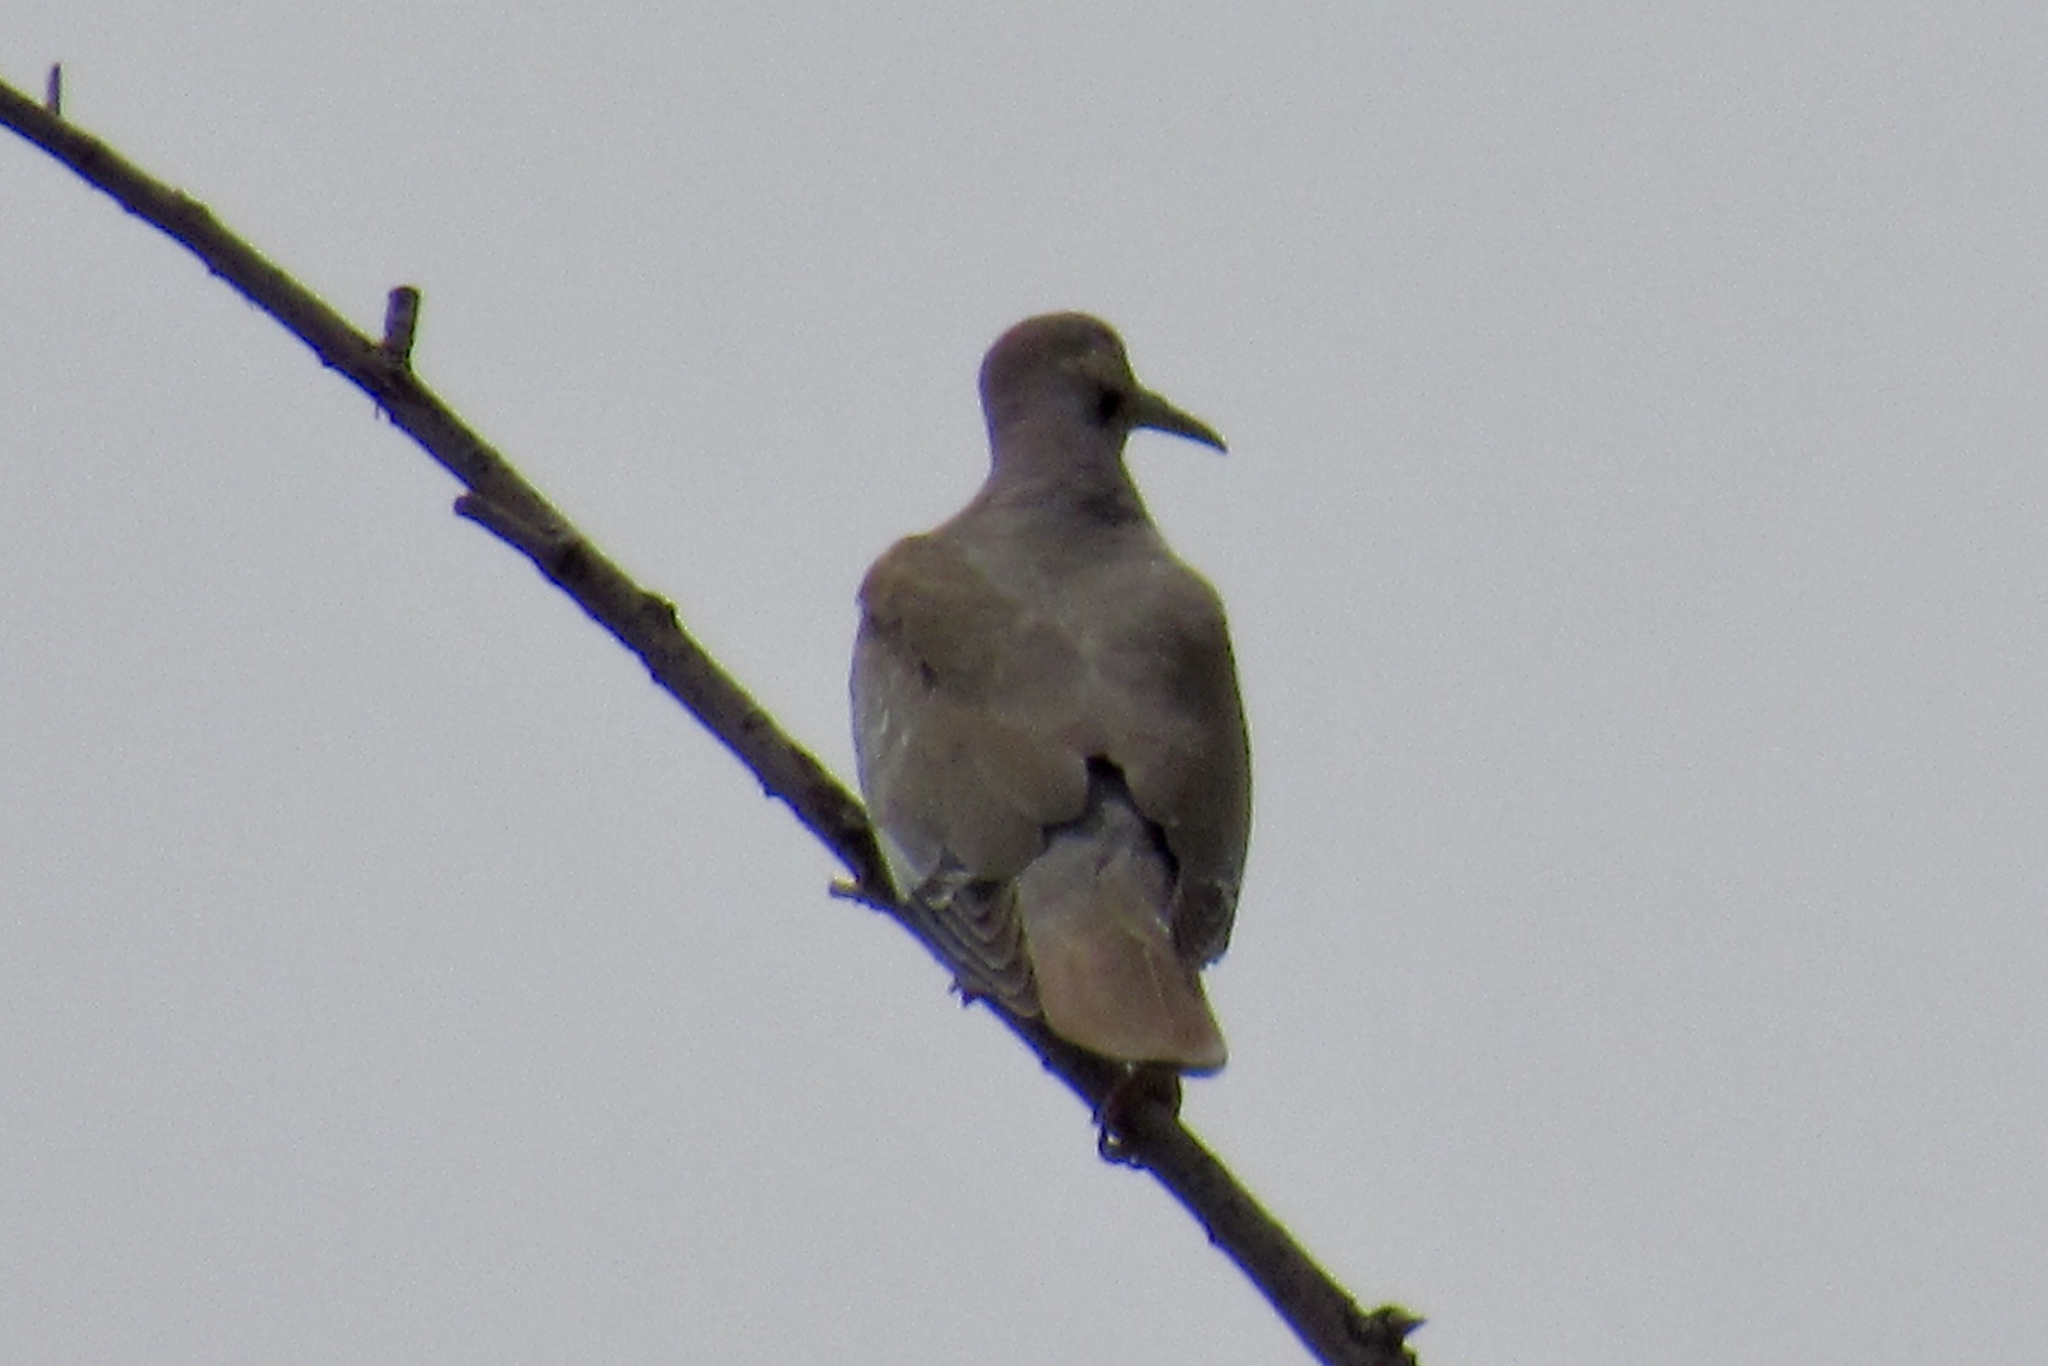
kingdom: Animalia
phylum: Chordata
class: Aves
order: Columbiformes
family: Columbidae
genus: Zenaida
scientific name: Zenaida asiatica
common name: White-winged dove
